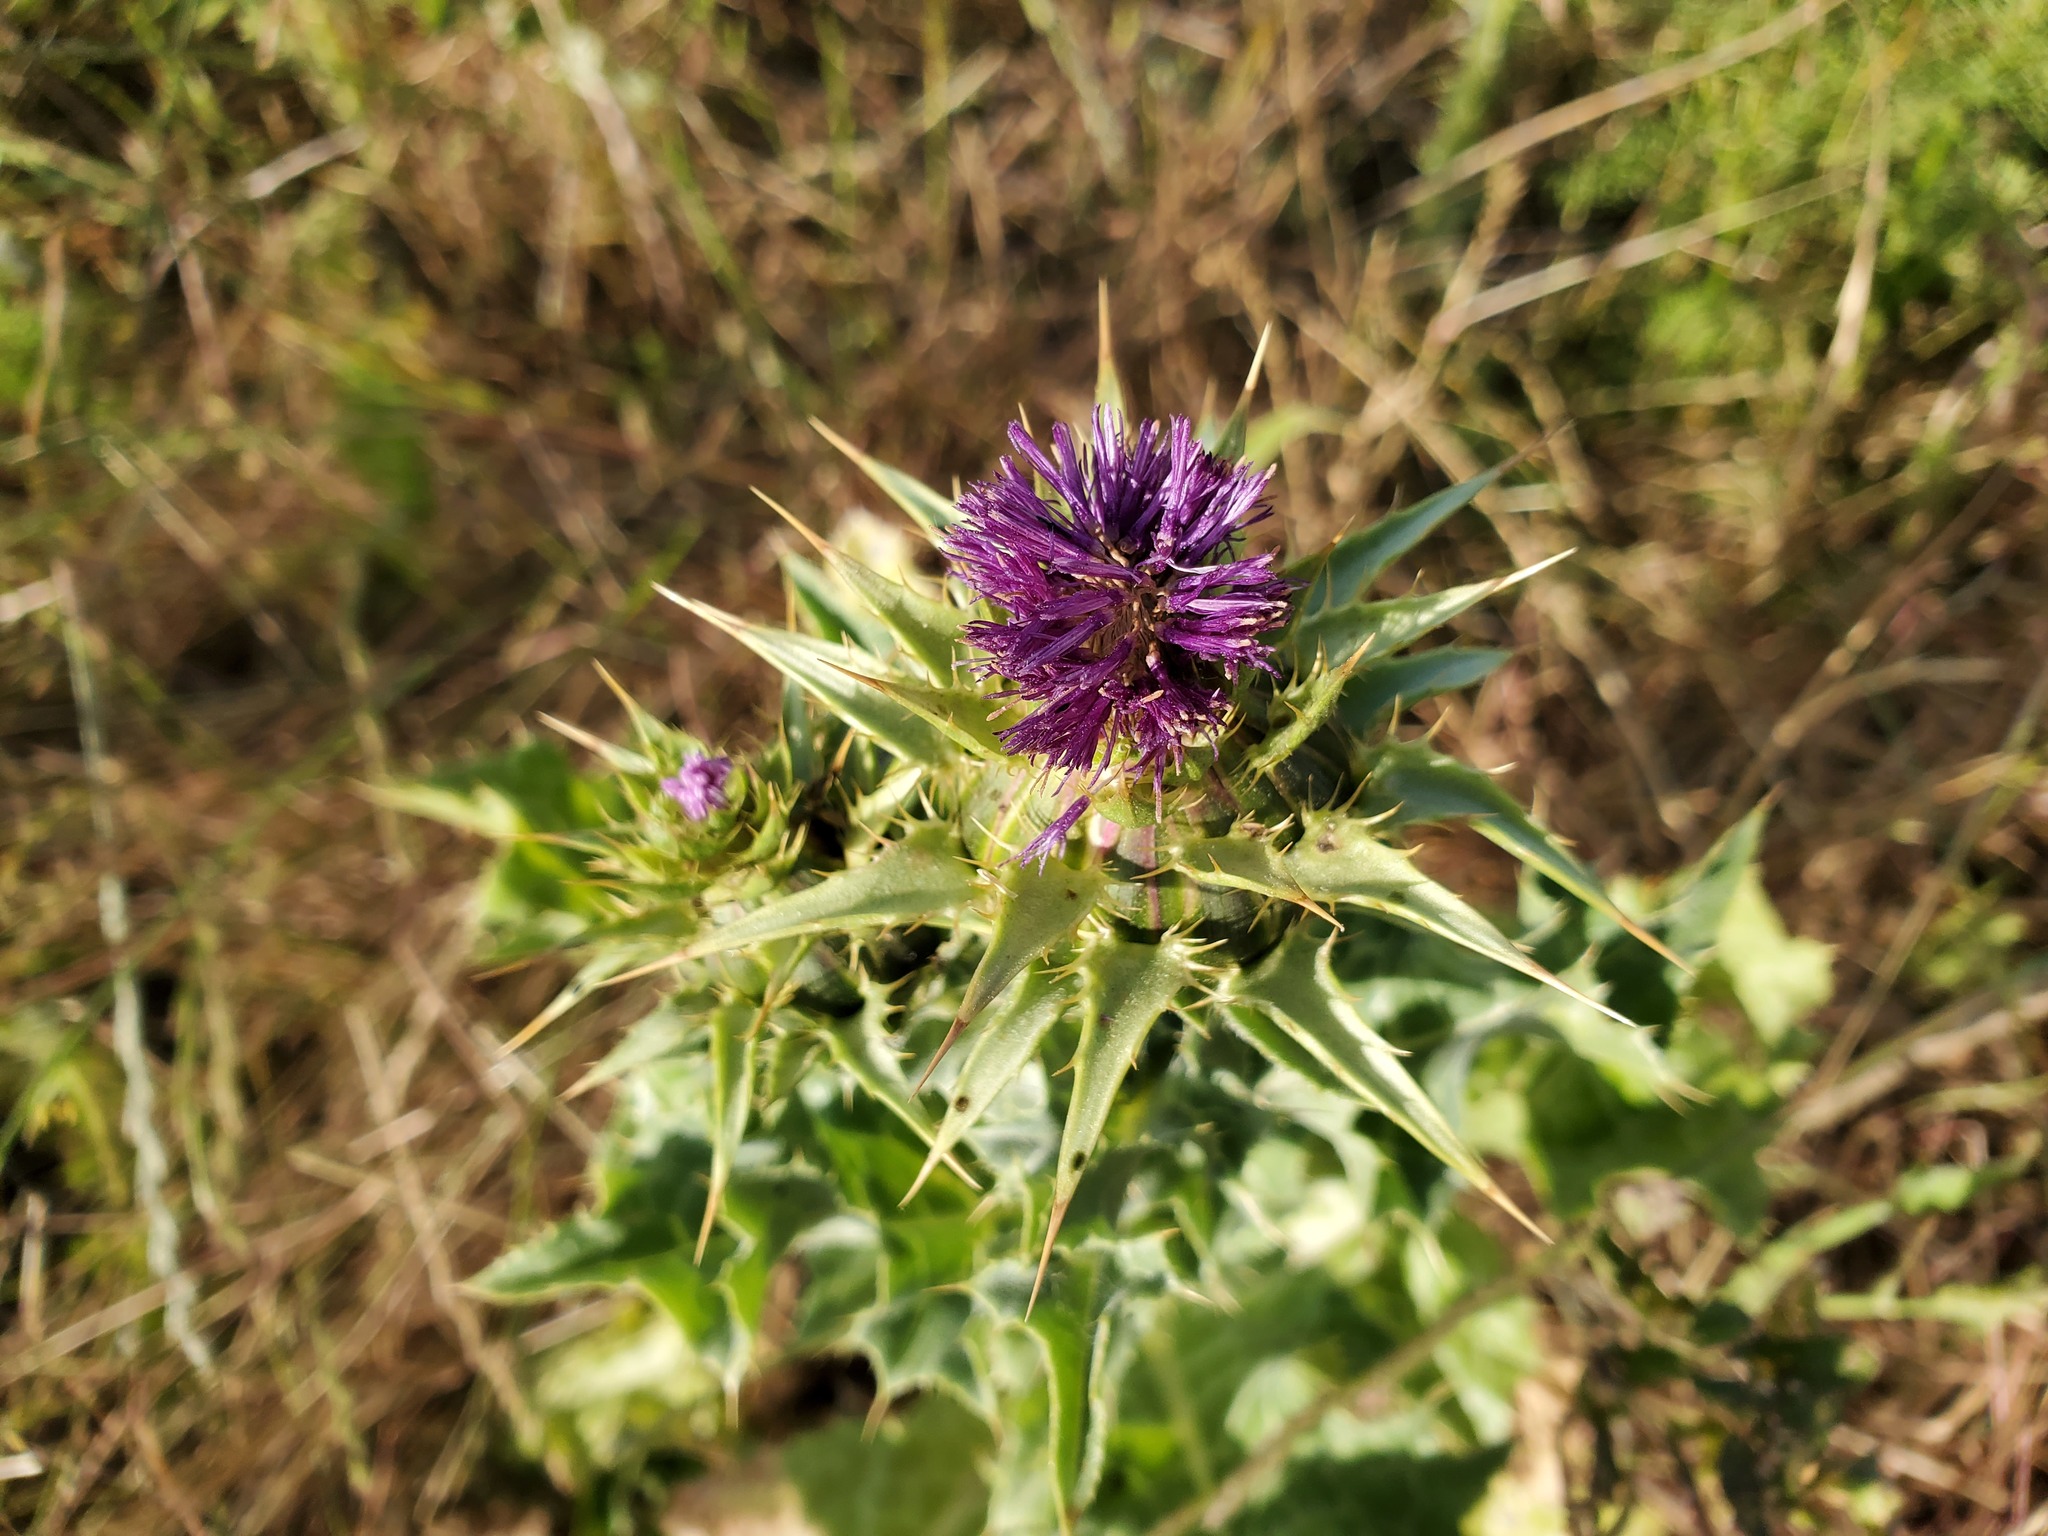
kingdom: Plantae
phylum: Tracheophyta
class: Magnoliopsida
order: Asterales
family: Asteraceae
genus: Silybum
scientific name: Silybum marianum
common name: Milk thistle
